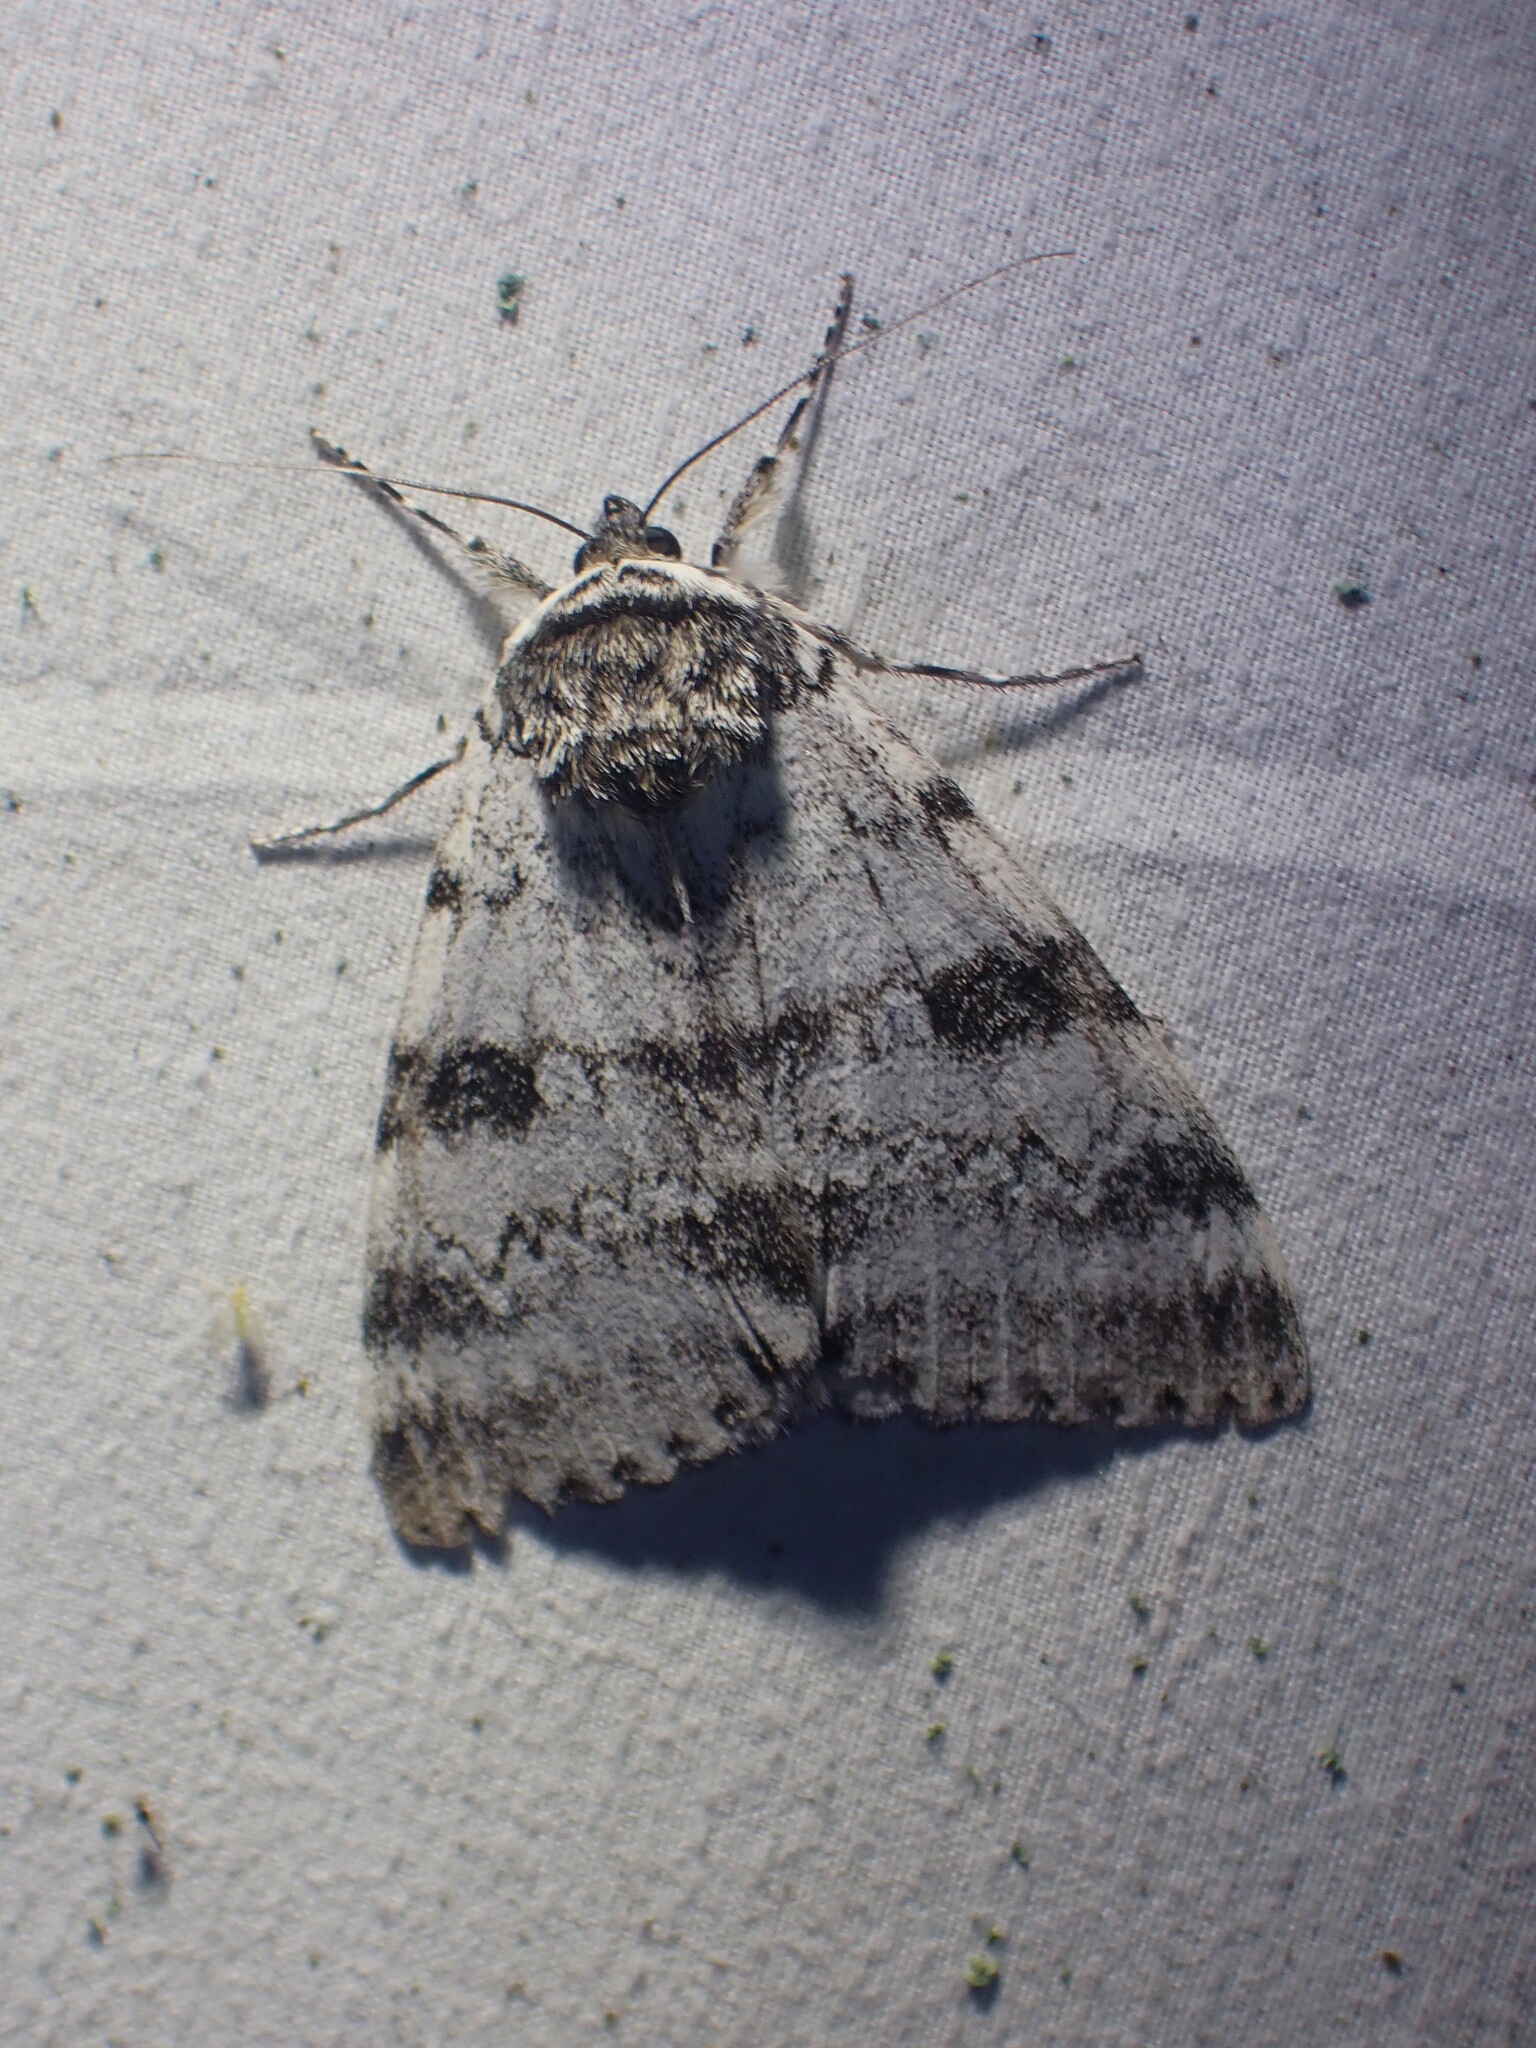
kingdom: Animalia
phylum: Arthropoda
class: Insecta
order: Lepidoptera
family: Erebidae
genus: Catocala
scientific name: Catocala relicta
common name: White underwing
